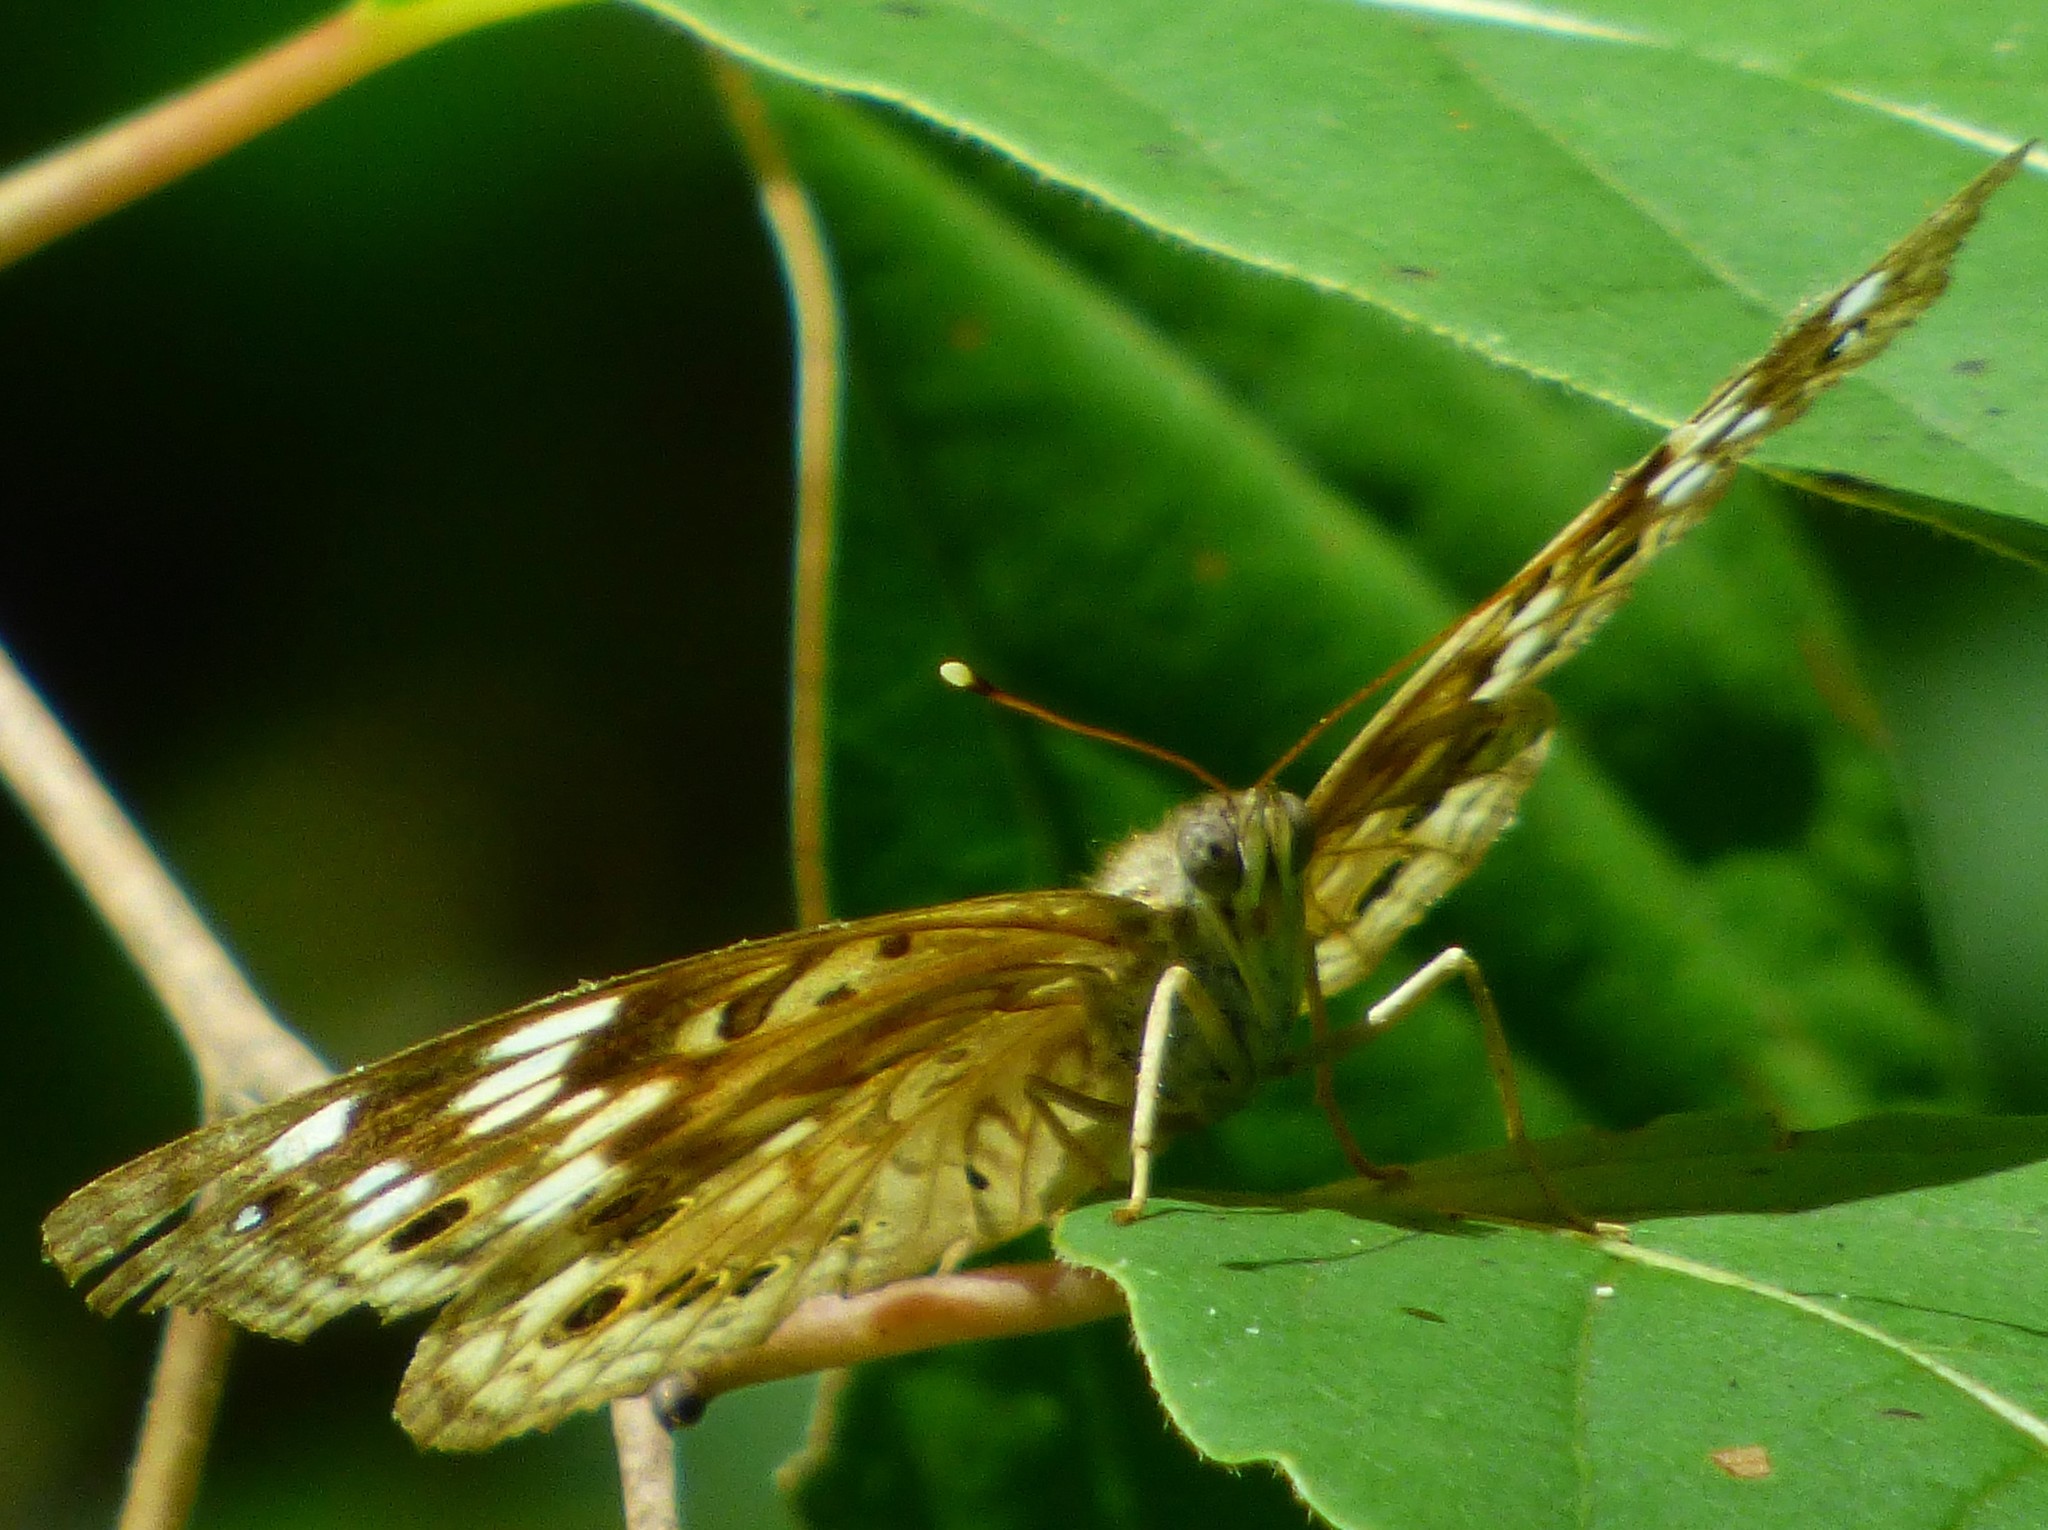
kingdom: Animalia
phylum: Arthropoda
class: Insecta
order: Lepidoptera
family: Nymphalidae
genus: Asterocampa
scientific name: Asterocampa celtis
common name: Hackberry emperor
